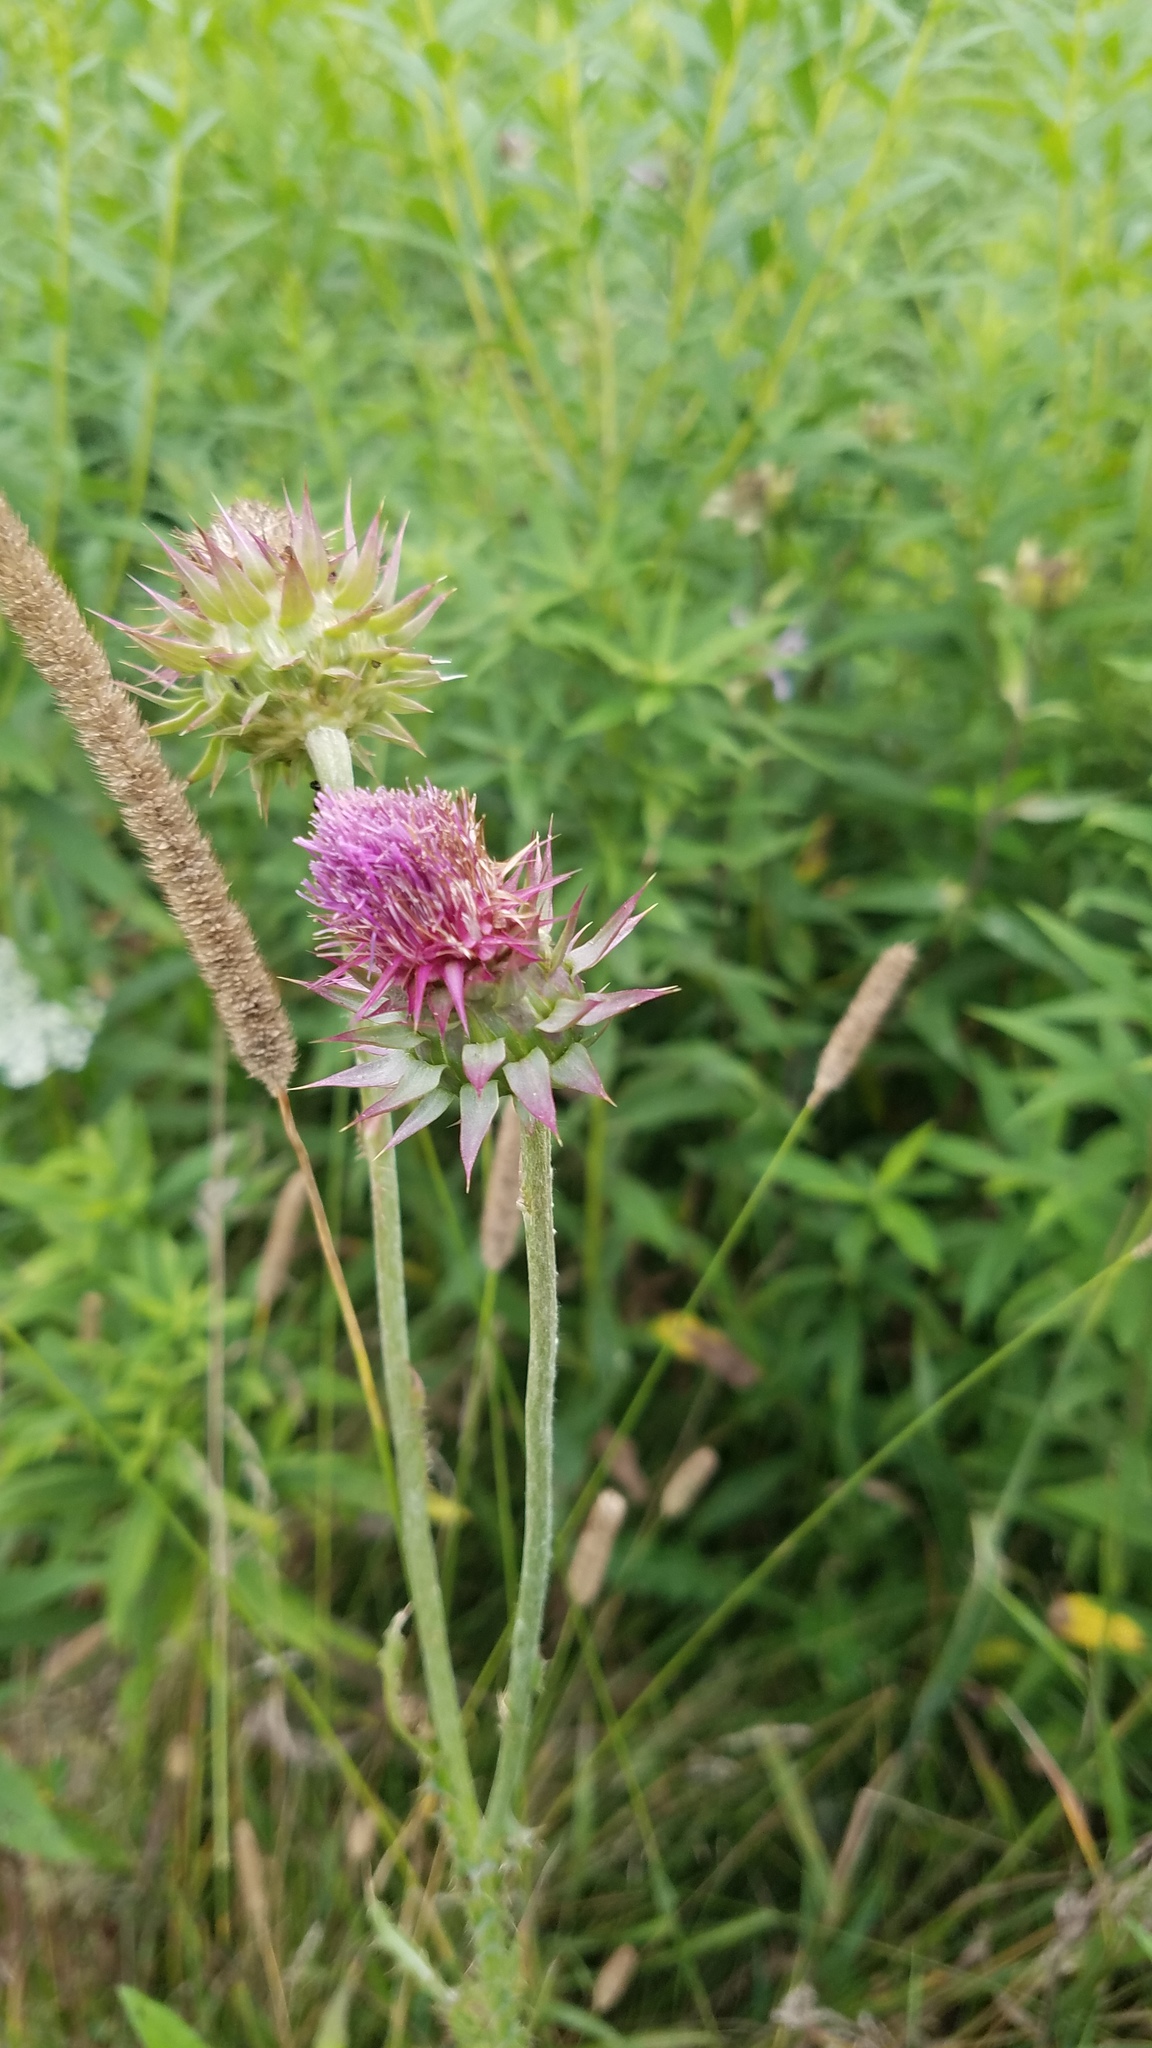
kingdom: Plantae
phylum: Tracheophyta
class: Magnoliopsida
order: Asterales
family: Asteraceae
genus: Carduus
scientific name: Carduus nutans
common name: Musk thistle
